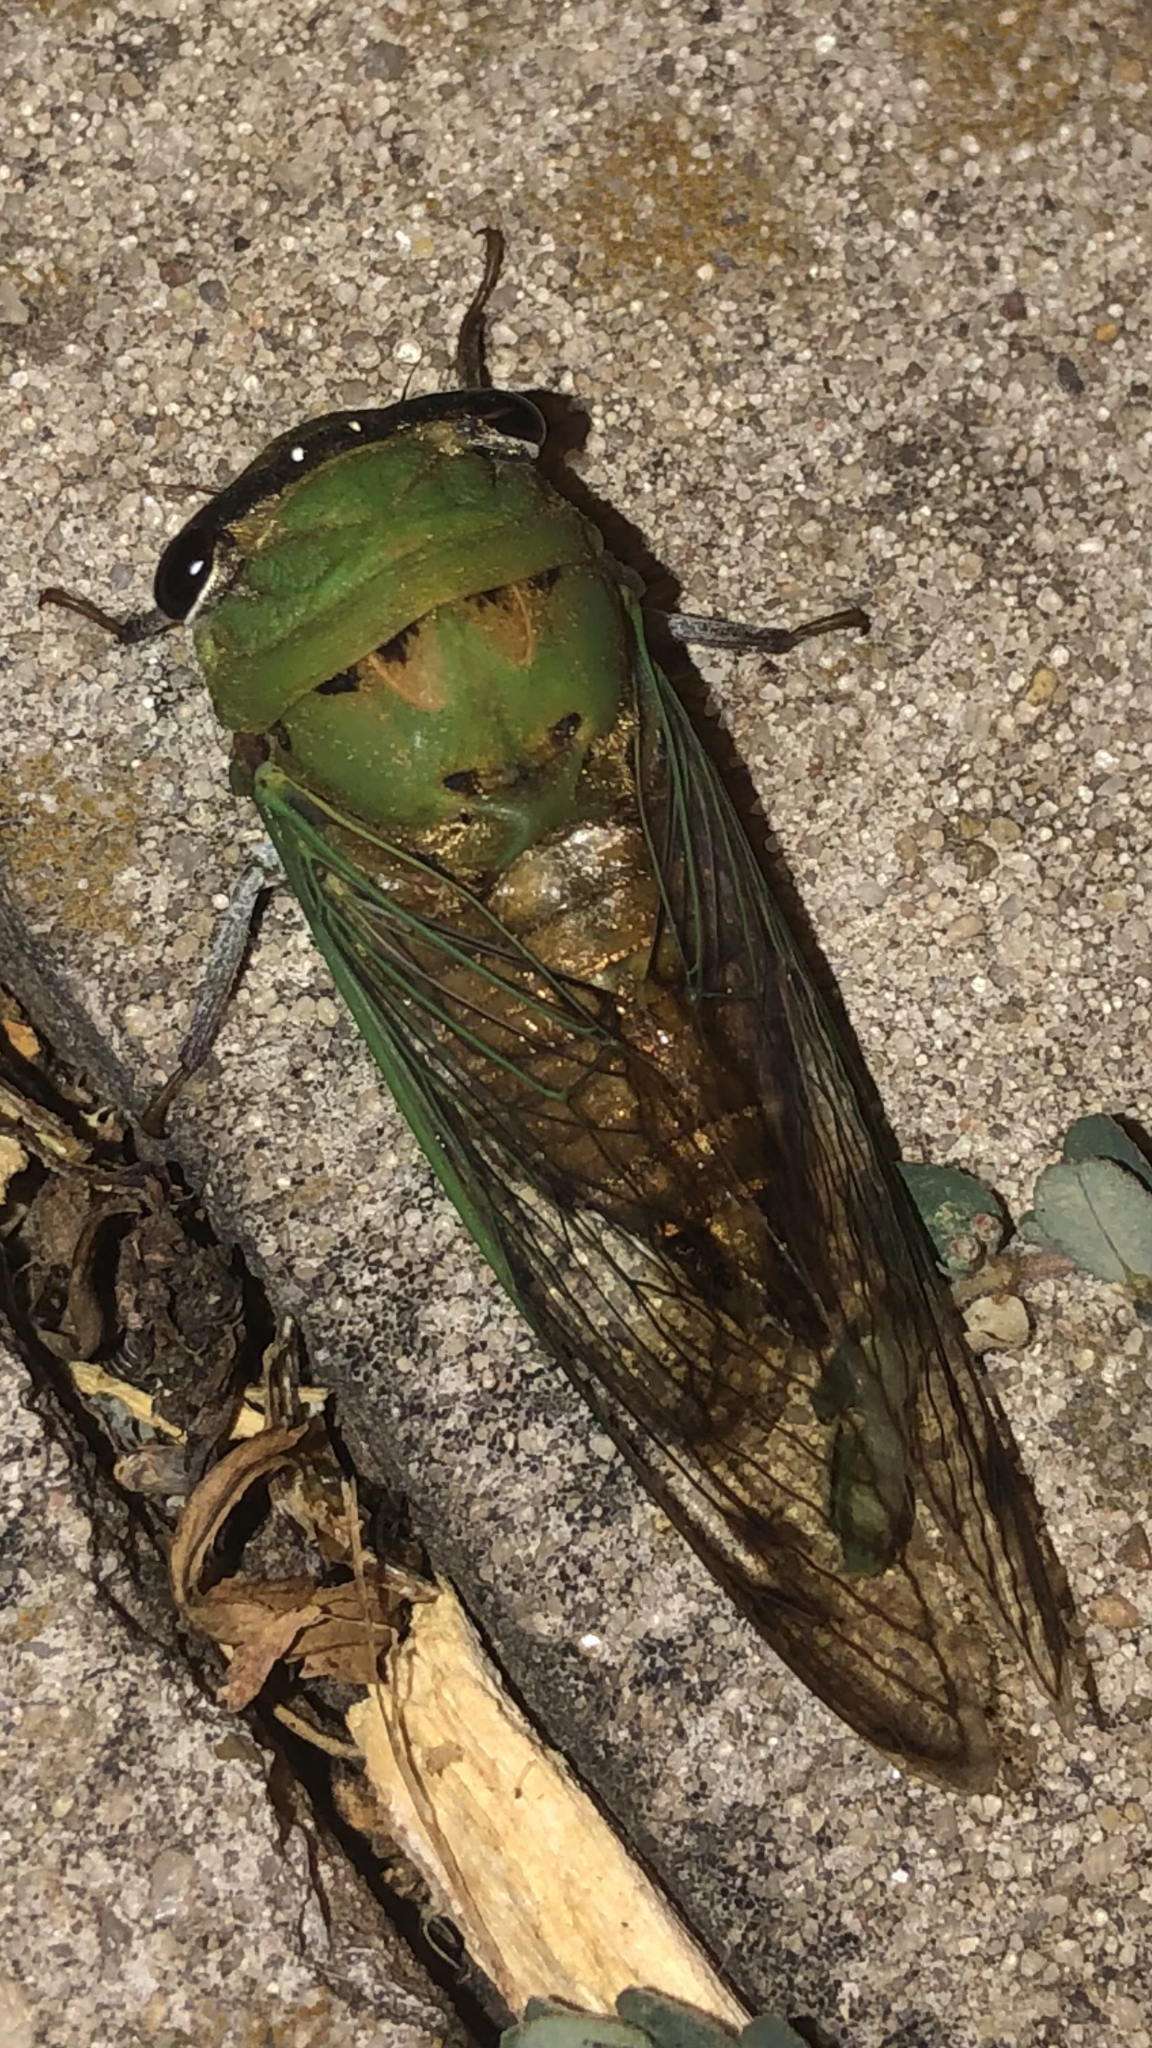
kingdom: Animalia
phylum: Arthropoda
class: Insecta
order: Hemiptera
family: Cicadidae
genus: Neotibicen
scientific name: Neotibicen superbus
